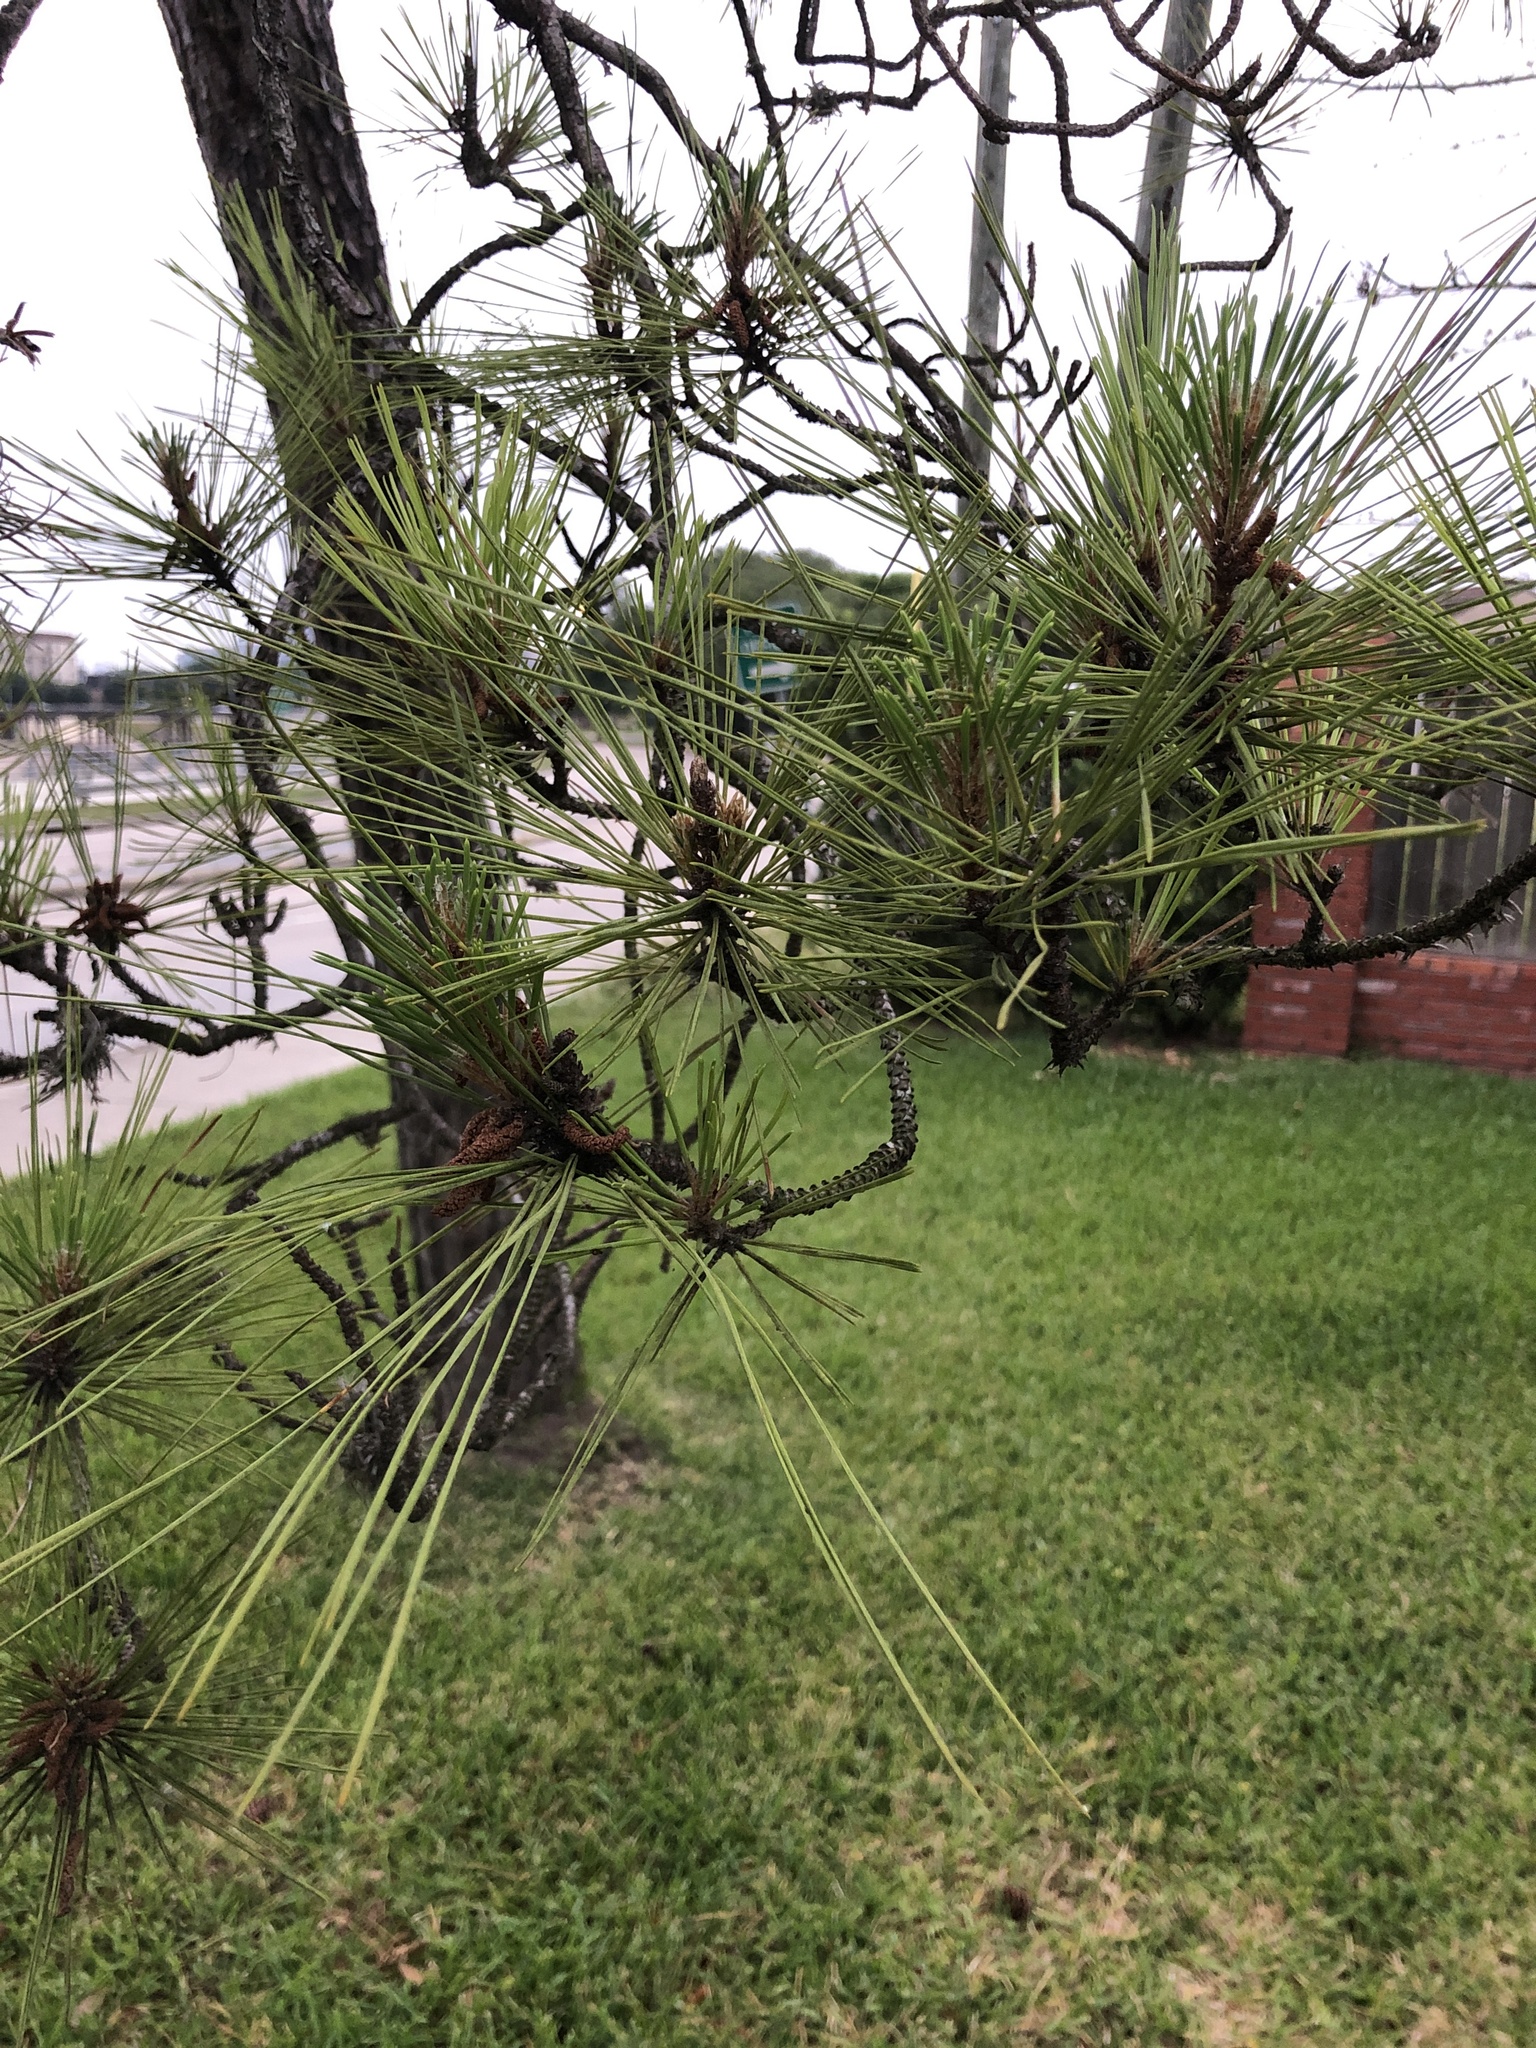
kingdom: Plantae
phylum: Tracheophyta
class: Pinopsida
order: Pinales
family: Pinaceae
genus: Pinus
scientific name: Pinus echinata
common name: Shortleaf pine
